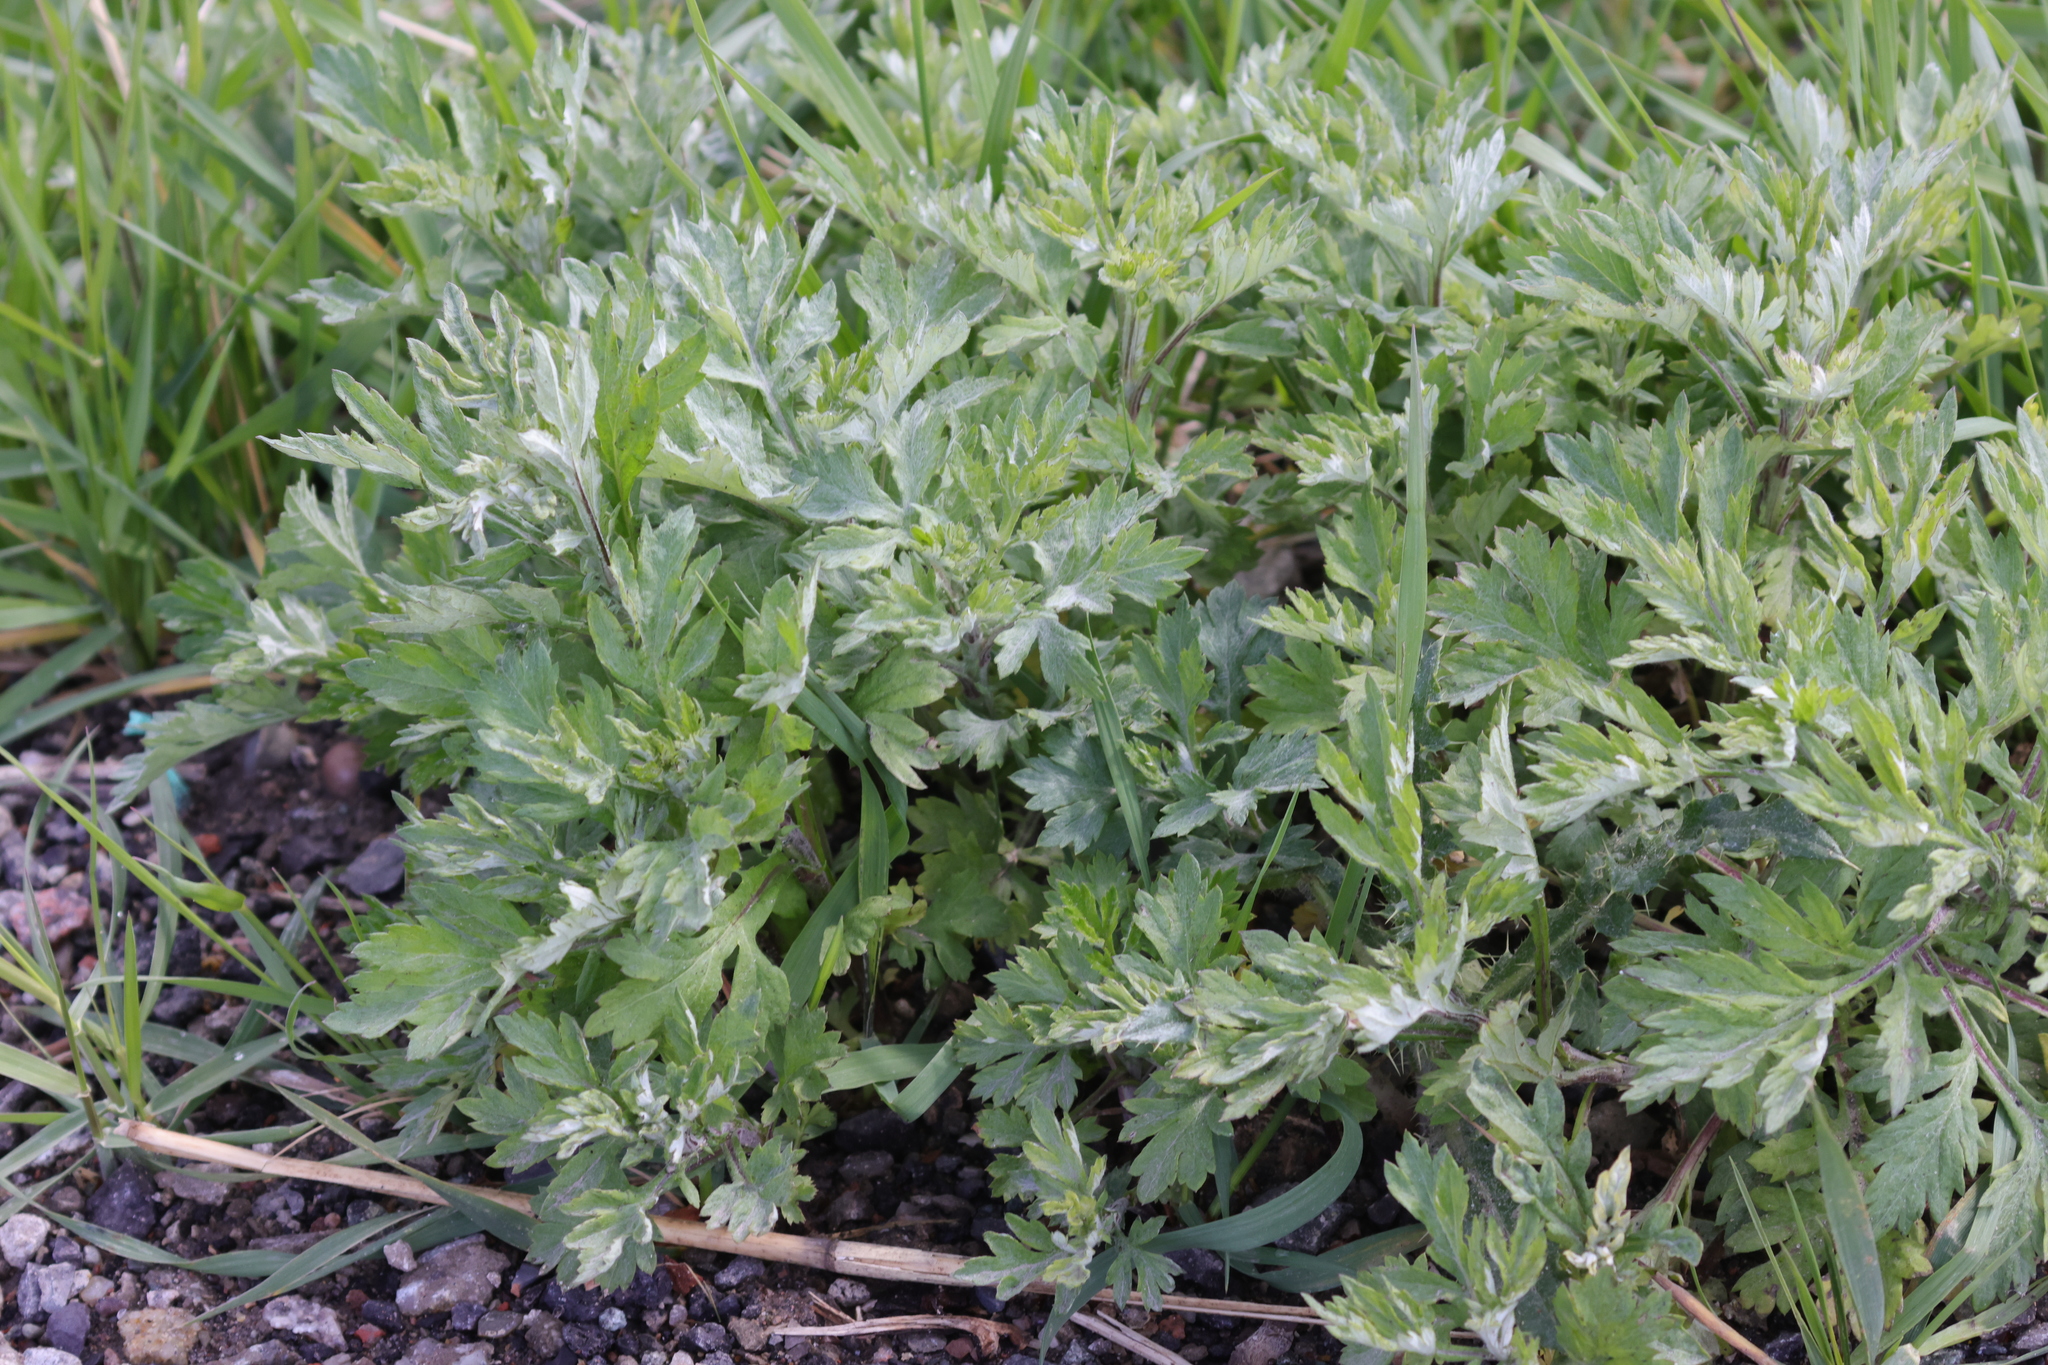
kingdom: Plantae
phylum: Tracheophyta
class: Magnoliopsida
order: Asterales
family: Asteraceae
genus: Artemisia
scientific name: Artemisia vulgaris
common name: Mugwort
